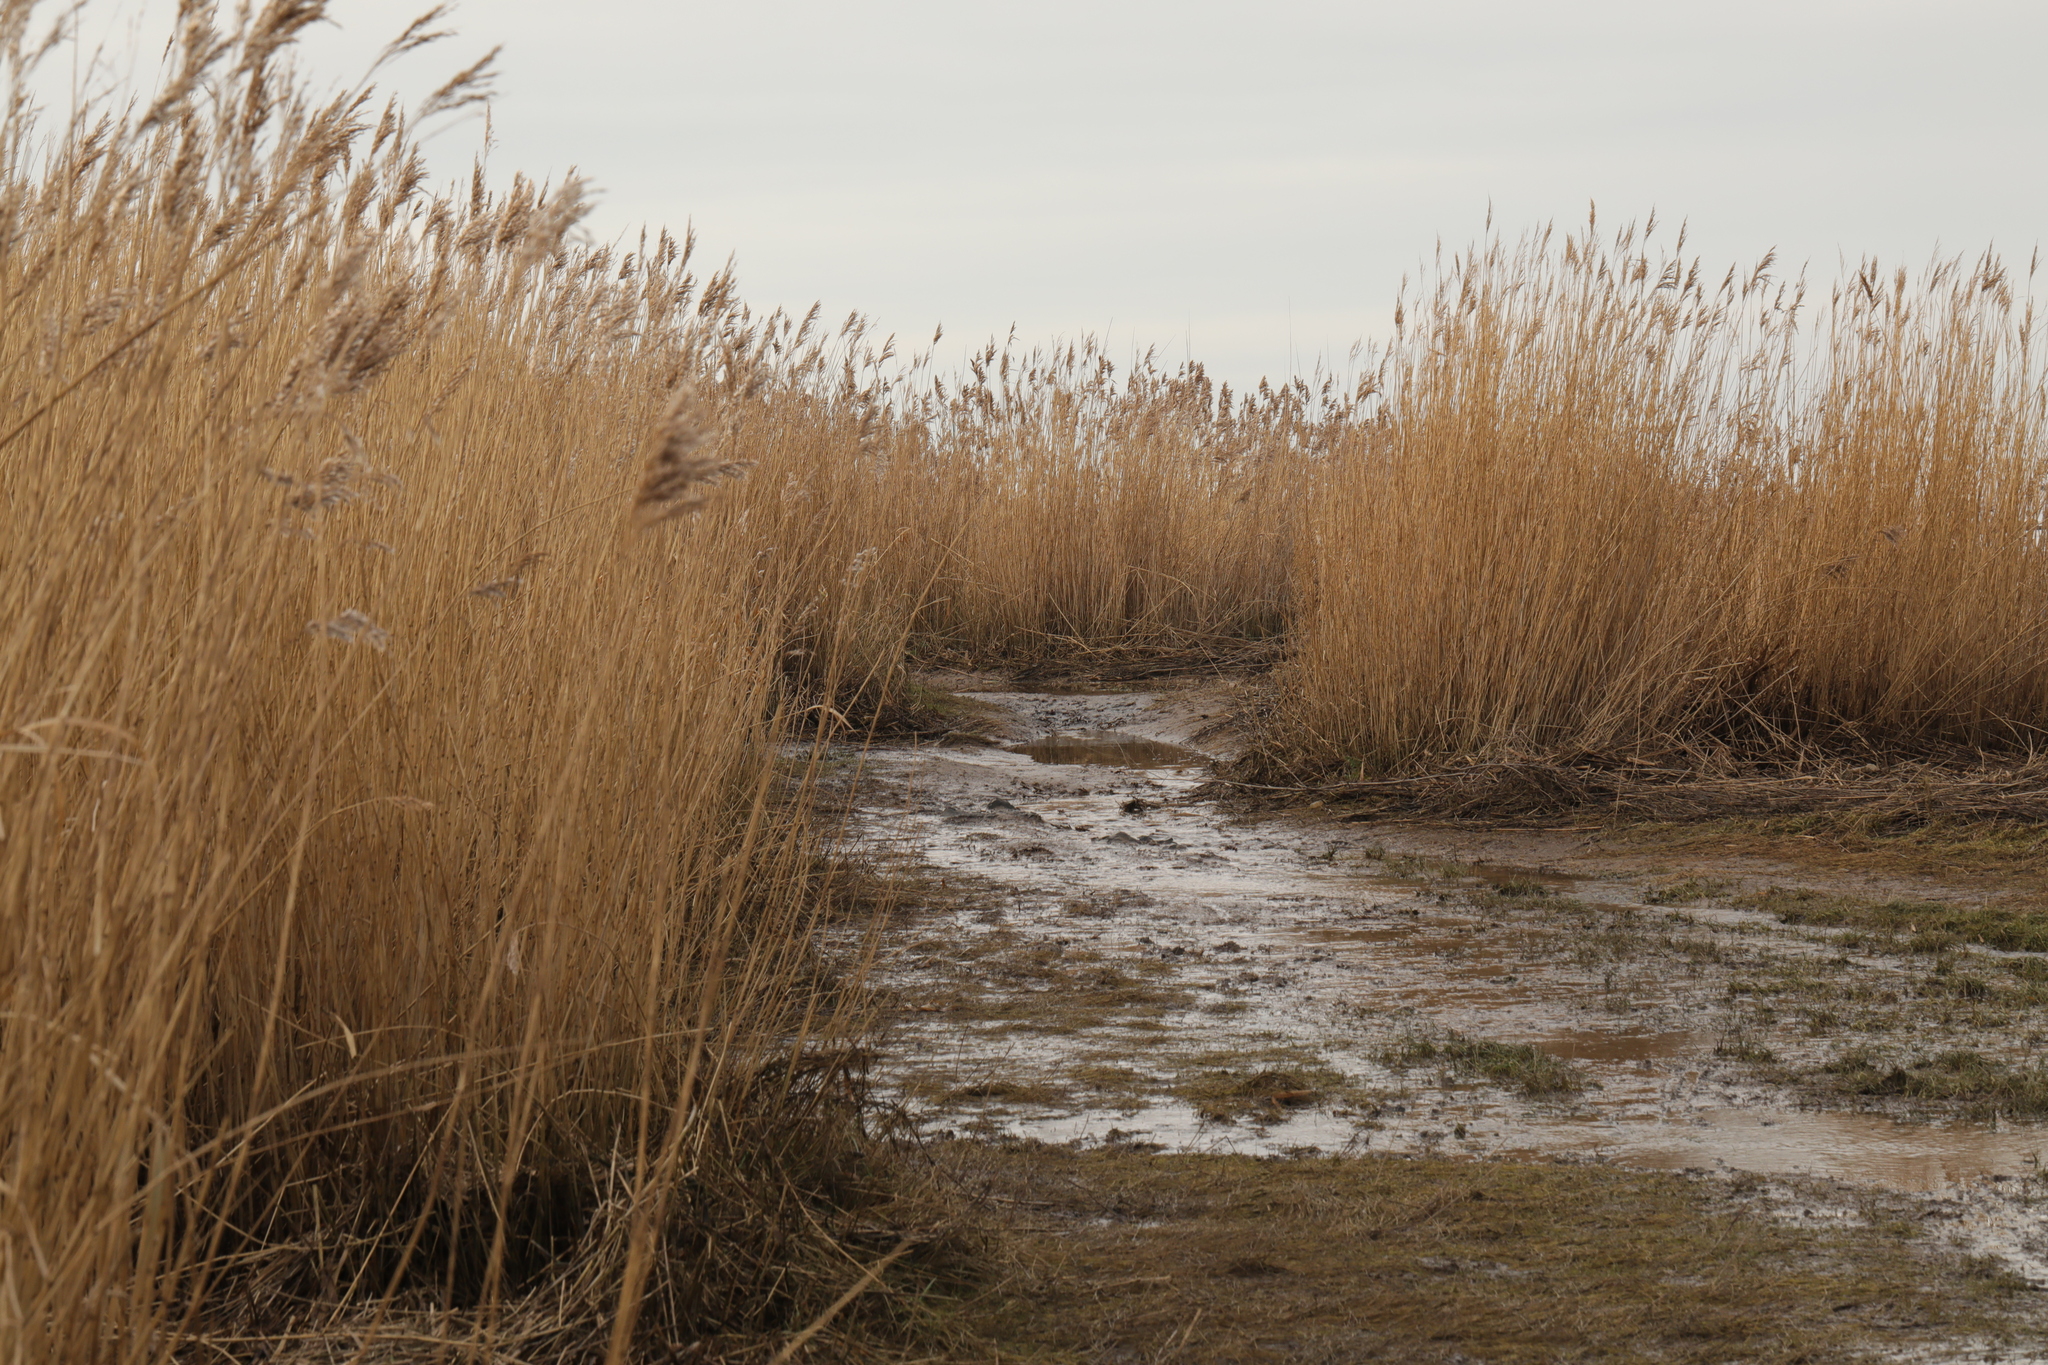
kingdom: Plantae
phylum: Tracheophyta
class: Liliopsida
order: Poales
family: Poaceae
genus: Phragmites
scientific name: Phragmites australis
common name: Common reed
